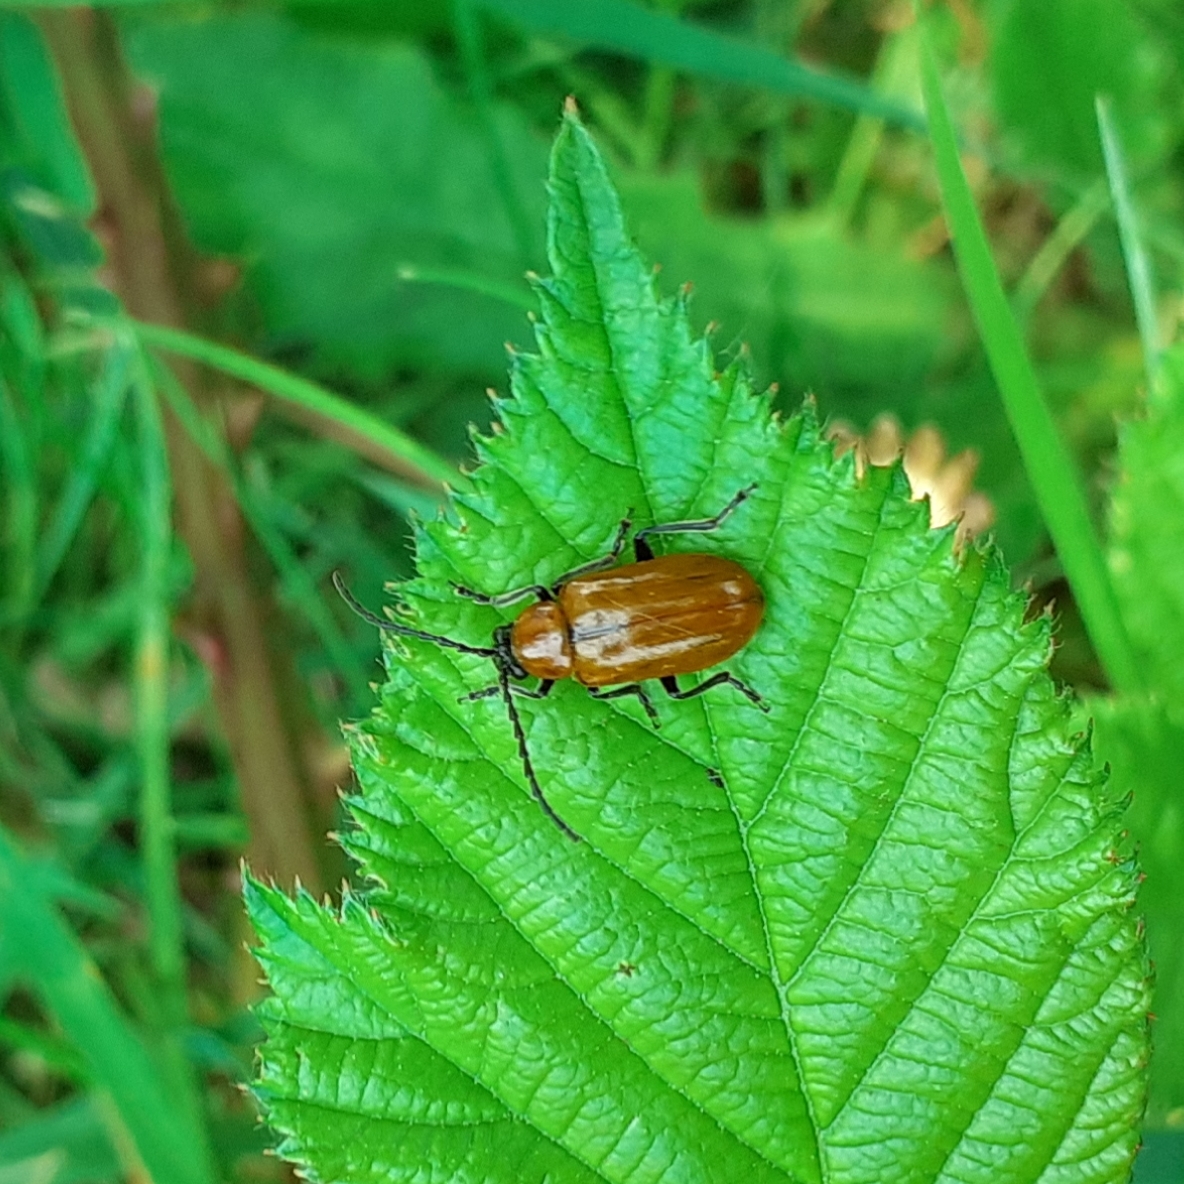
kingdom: Animalia
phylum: Arthropoda
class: Insecta
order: Coleoptera
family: Chrysomelidae
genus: Exosoma
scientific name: Exosoma lusitanicum
